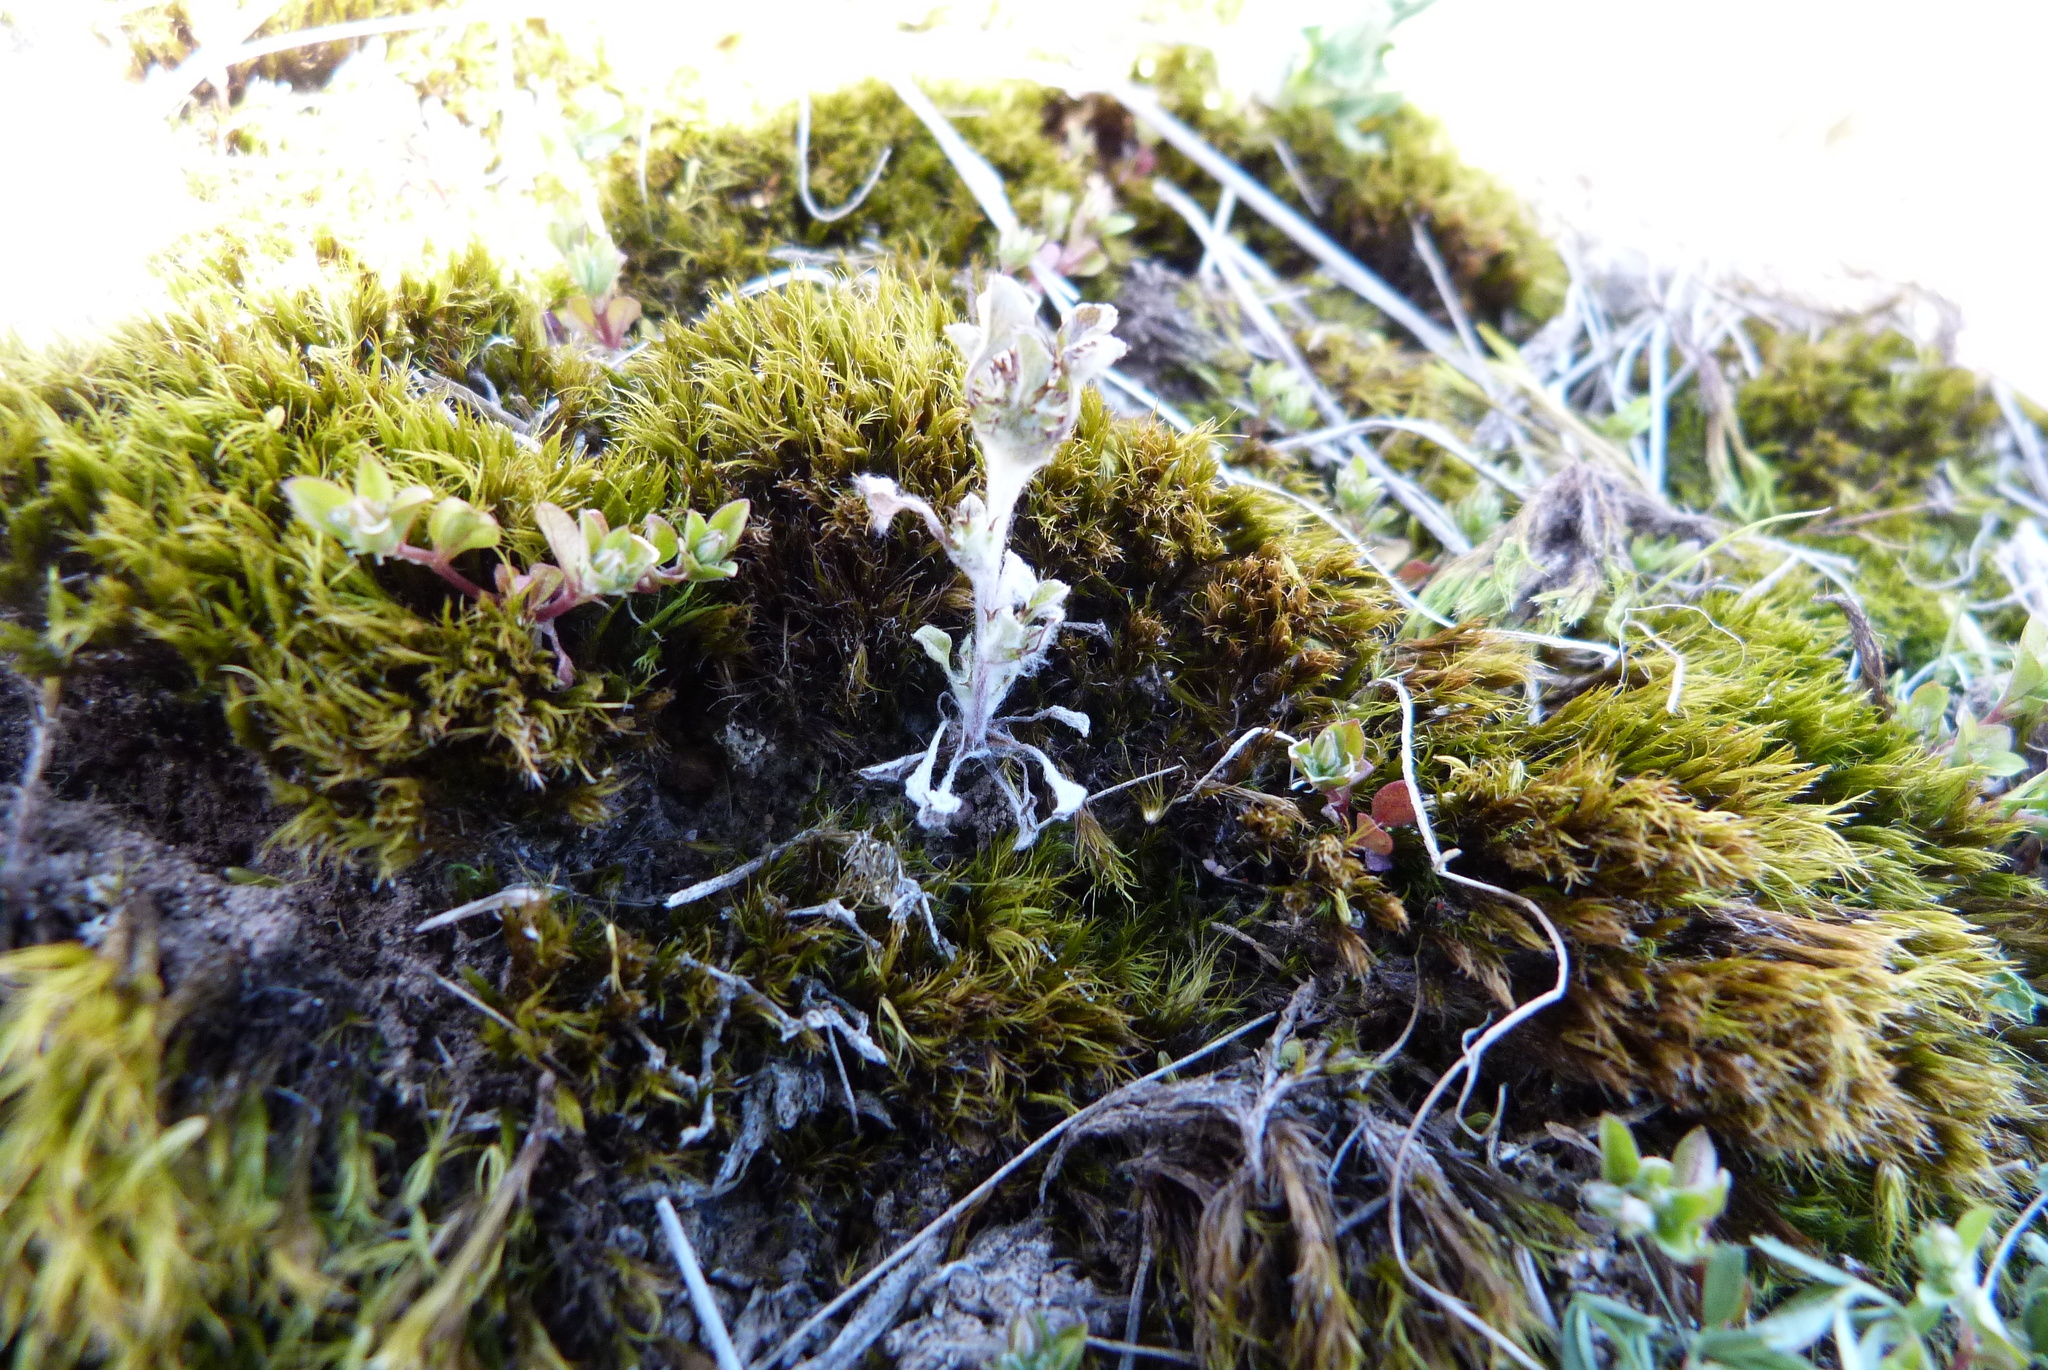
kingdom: Plantae
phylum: Tracheophyta
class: Magnoliopsida
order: Asterales
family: Asteraceae
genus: Stuartina
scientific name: Stuartina muelleri
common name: Spoon-leaved cudweed
